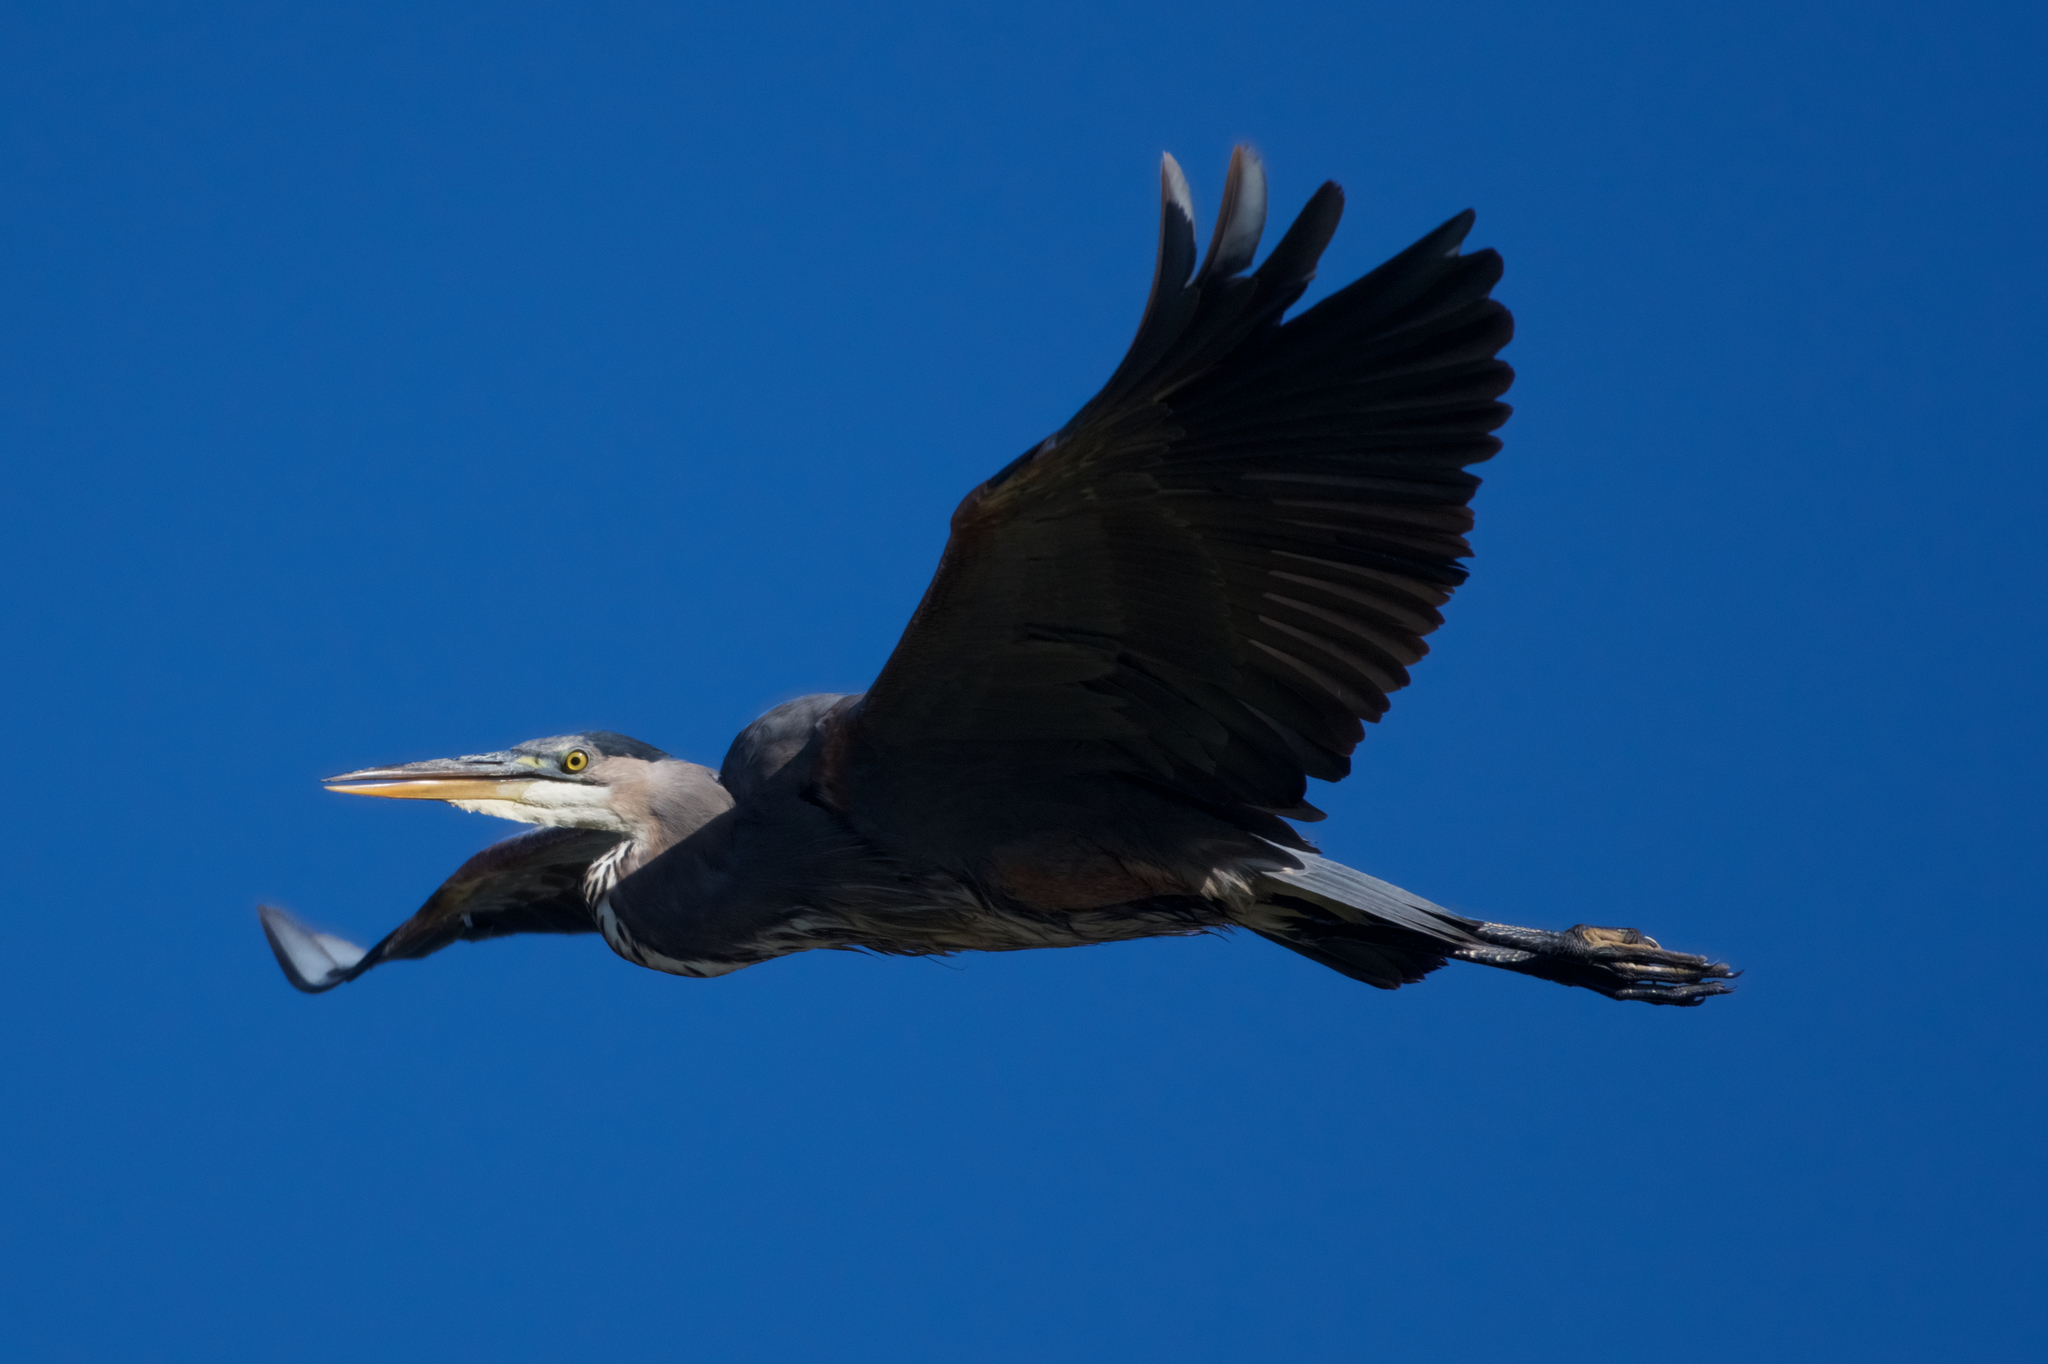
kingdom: Animalia
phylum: Chordata
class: Aves
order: Pelecaniformes
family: Ardeidae
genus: Ardea
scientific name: Ardea herodias
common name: Great blue heron
